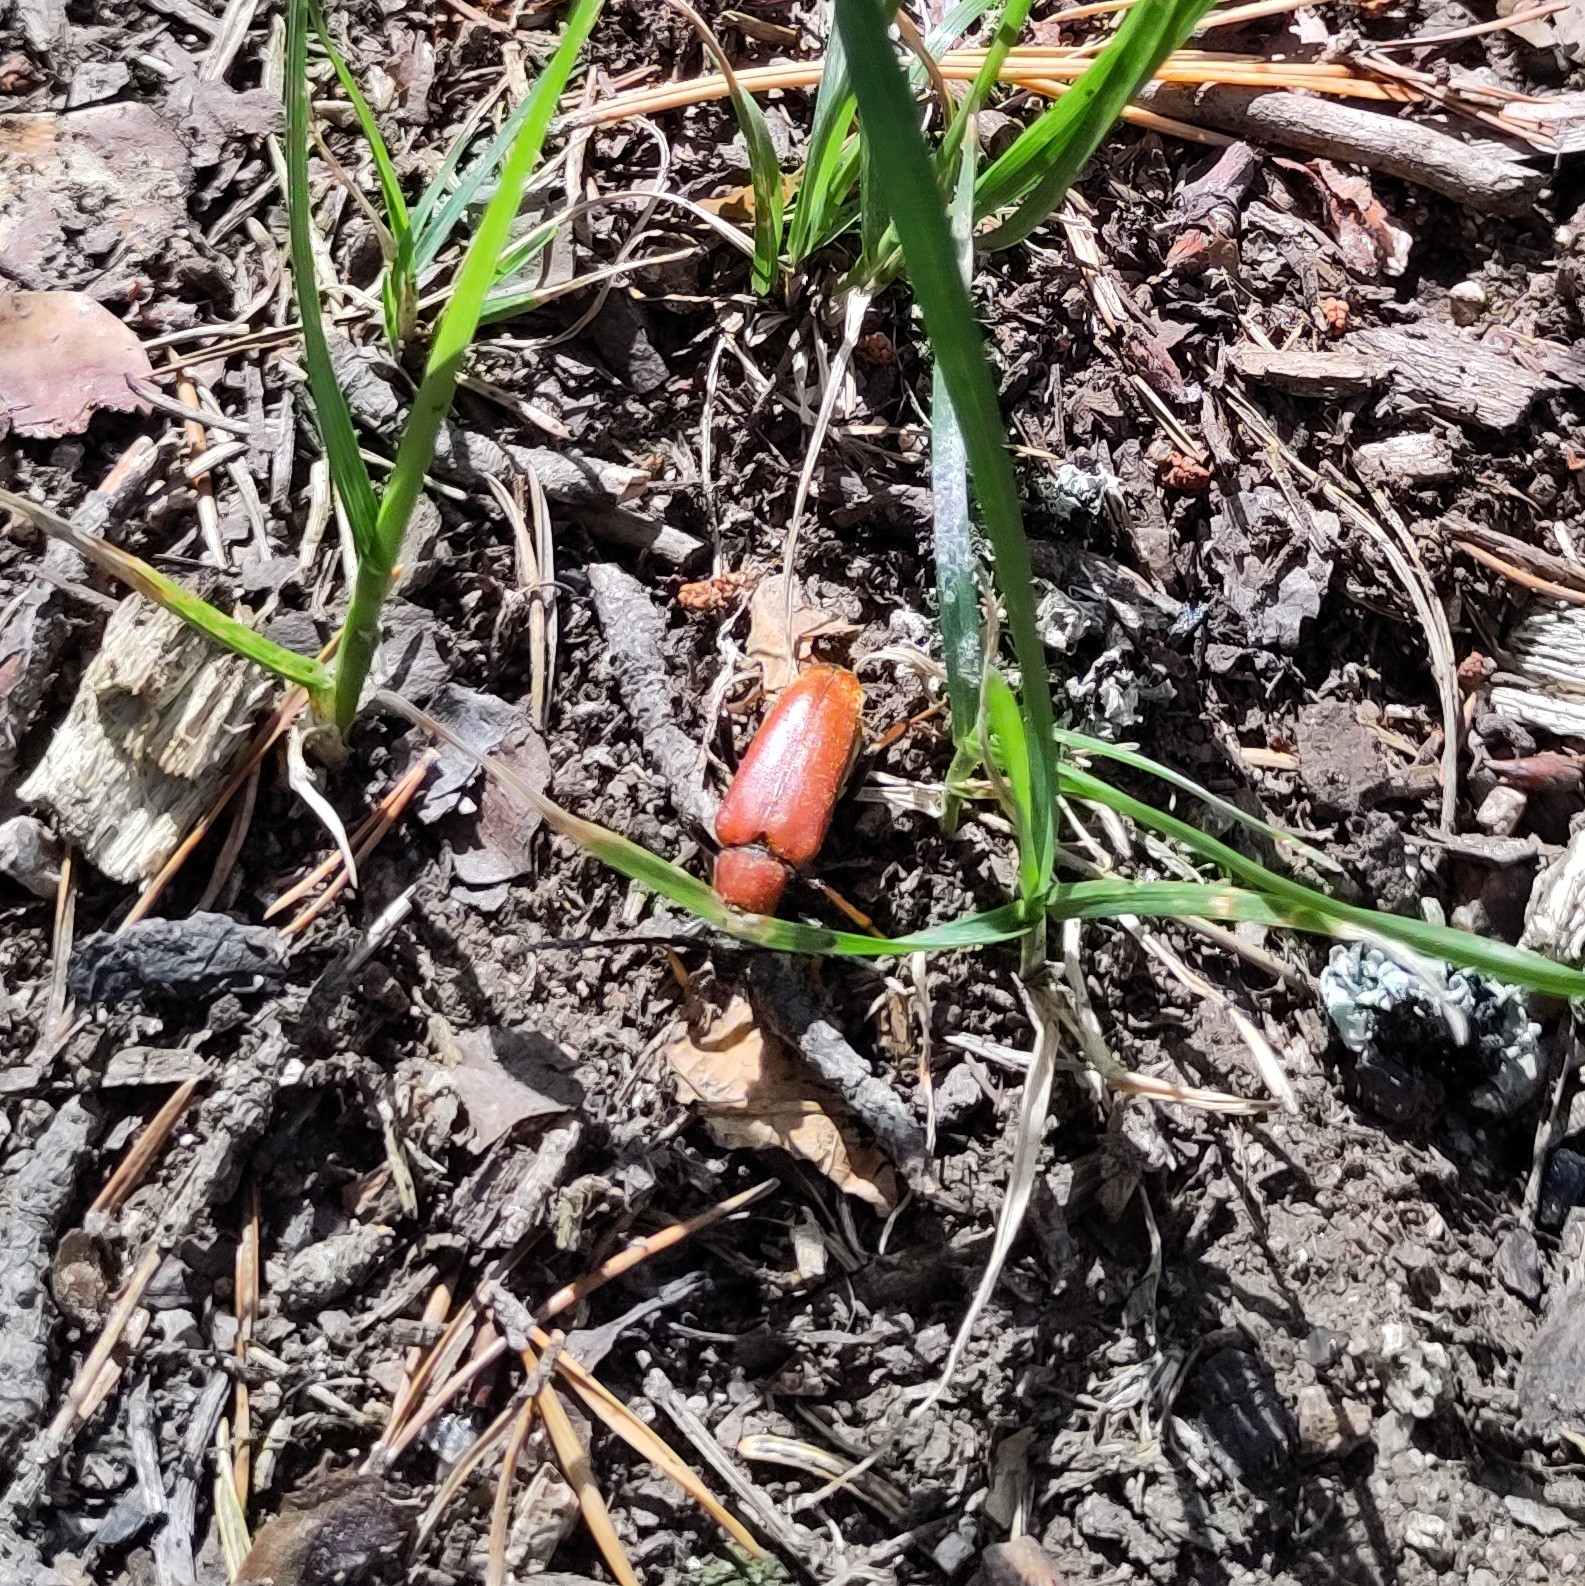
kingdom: Animalia
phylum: Arthropoda
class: Insecta
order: Coleoptera
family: Cerambycidae
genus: Stictoleptura
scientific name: Stictoleptura rubra
